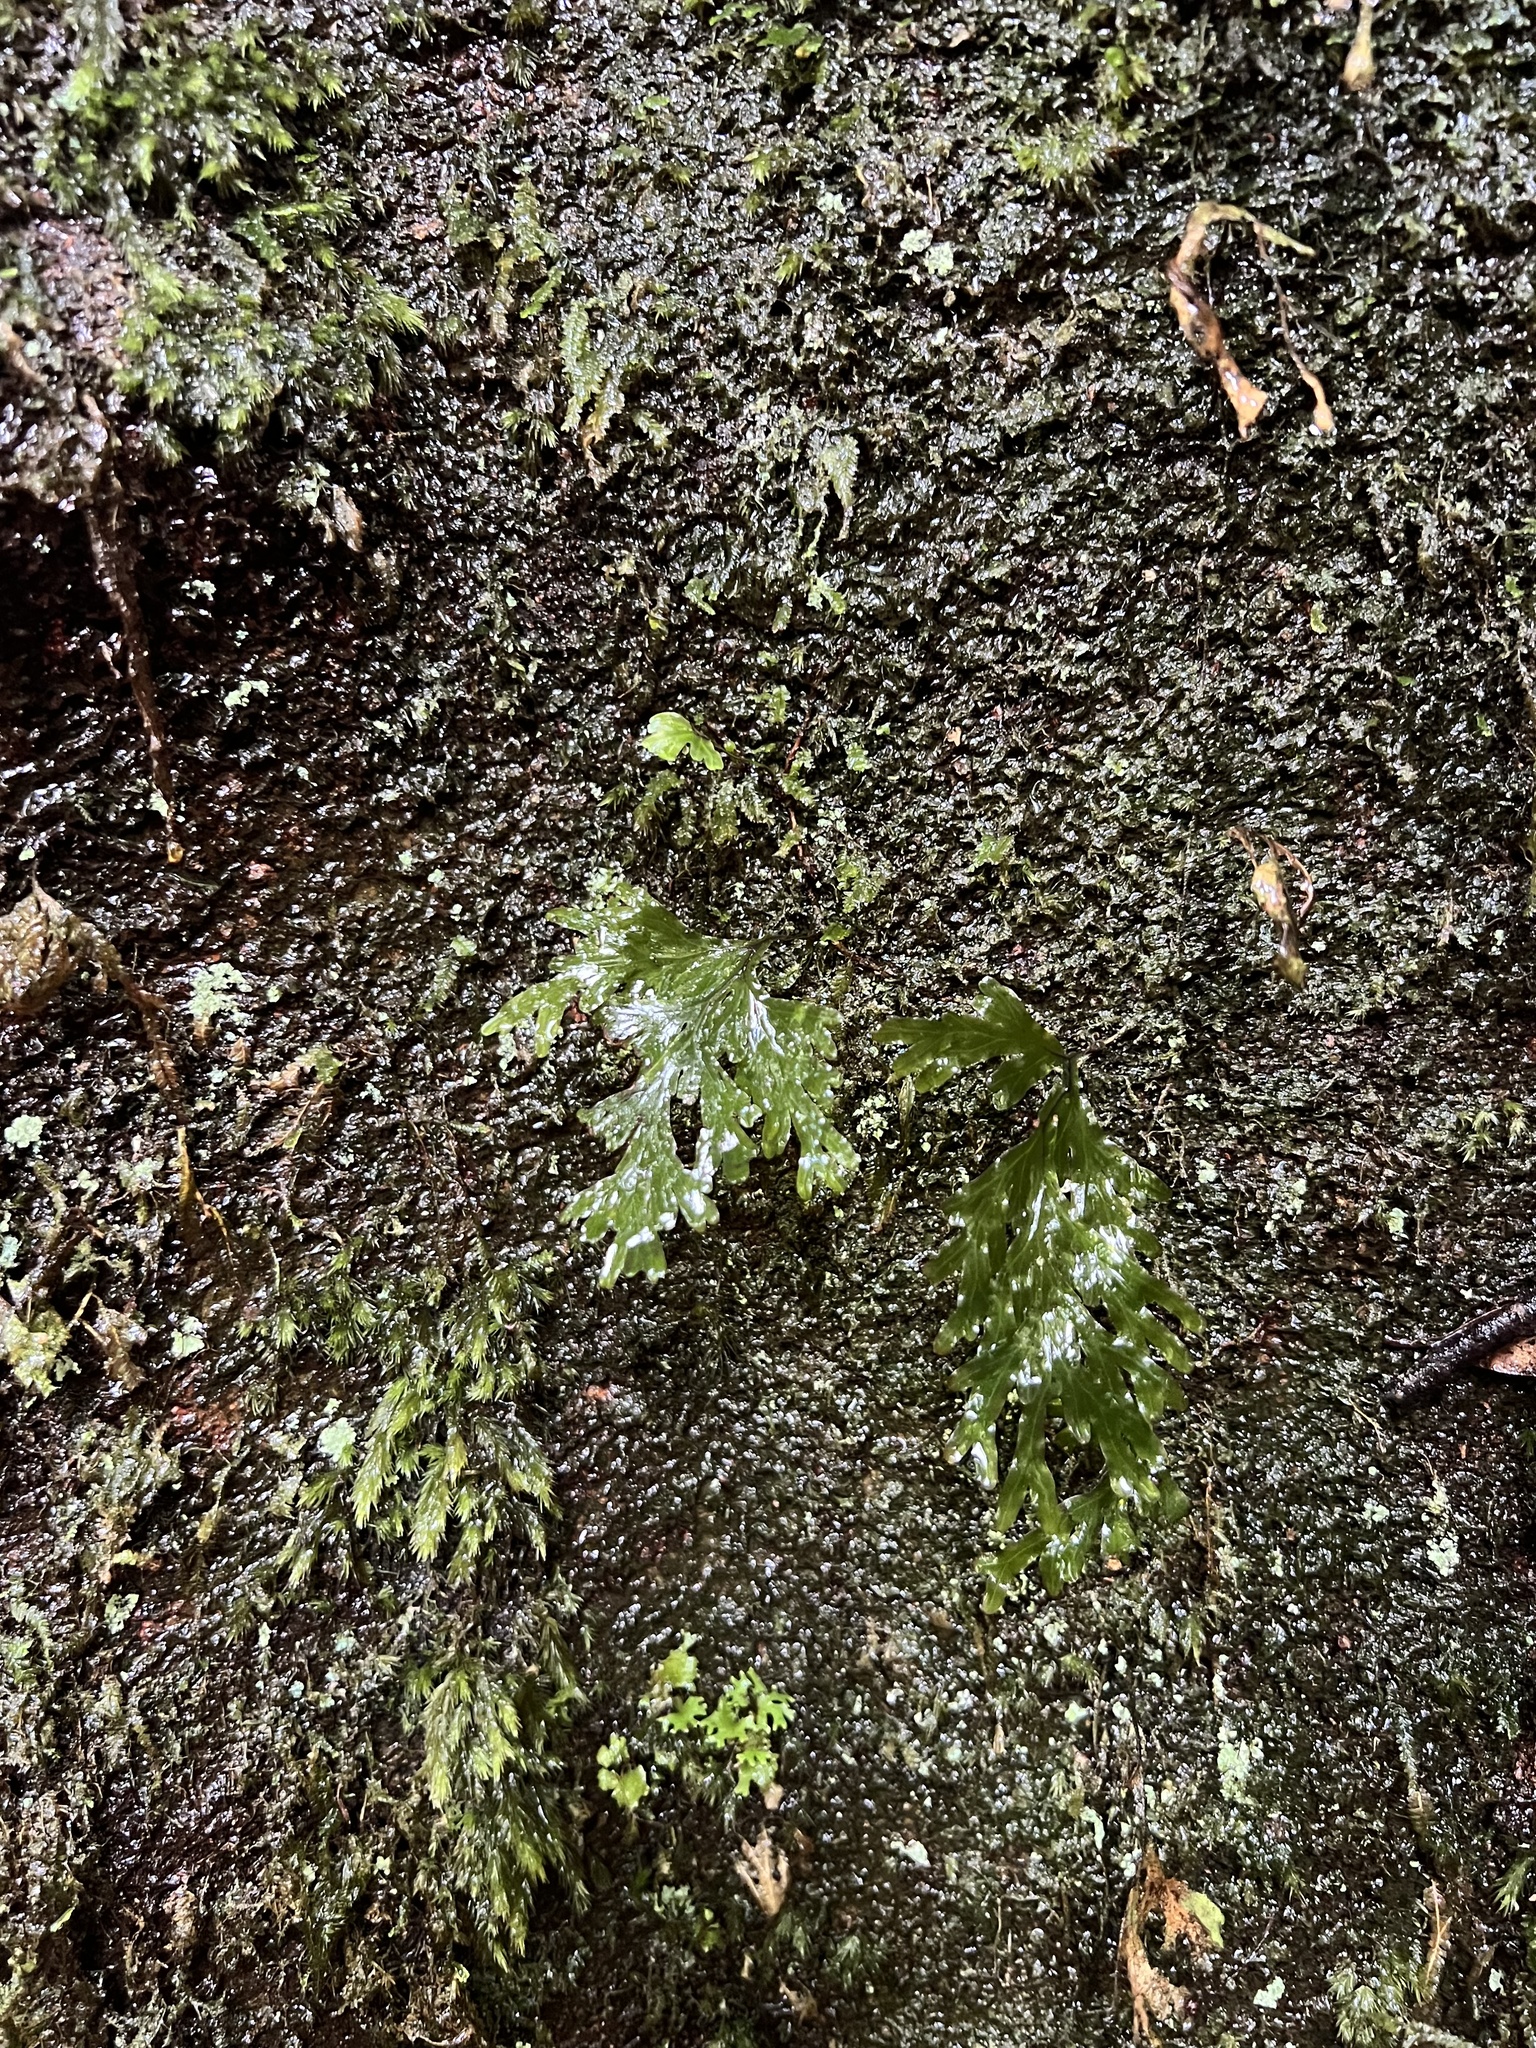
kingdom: Plantae
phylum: Tracheophyta
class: Polypodiopsida
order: Hymenophyllales
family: Hymenophyllaceae
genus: Hymenophyllum
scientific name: Hymenophyllum dilatatum
